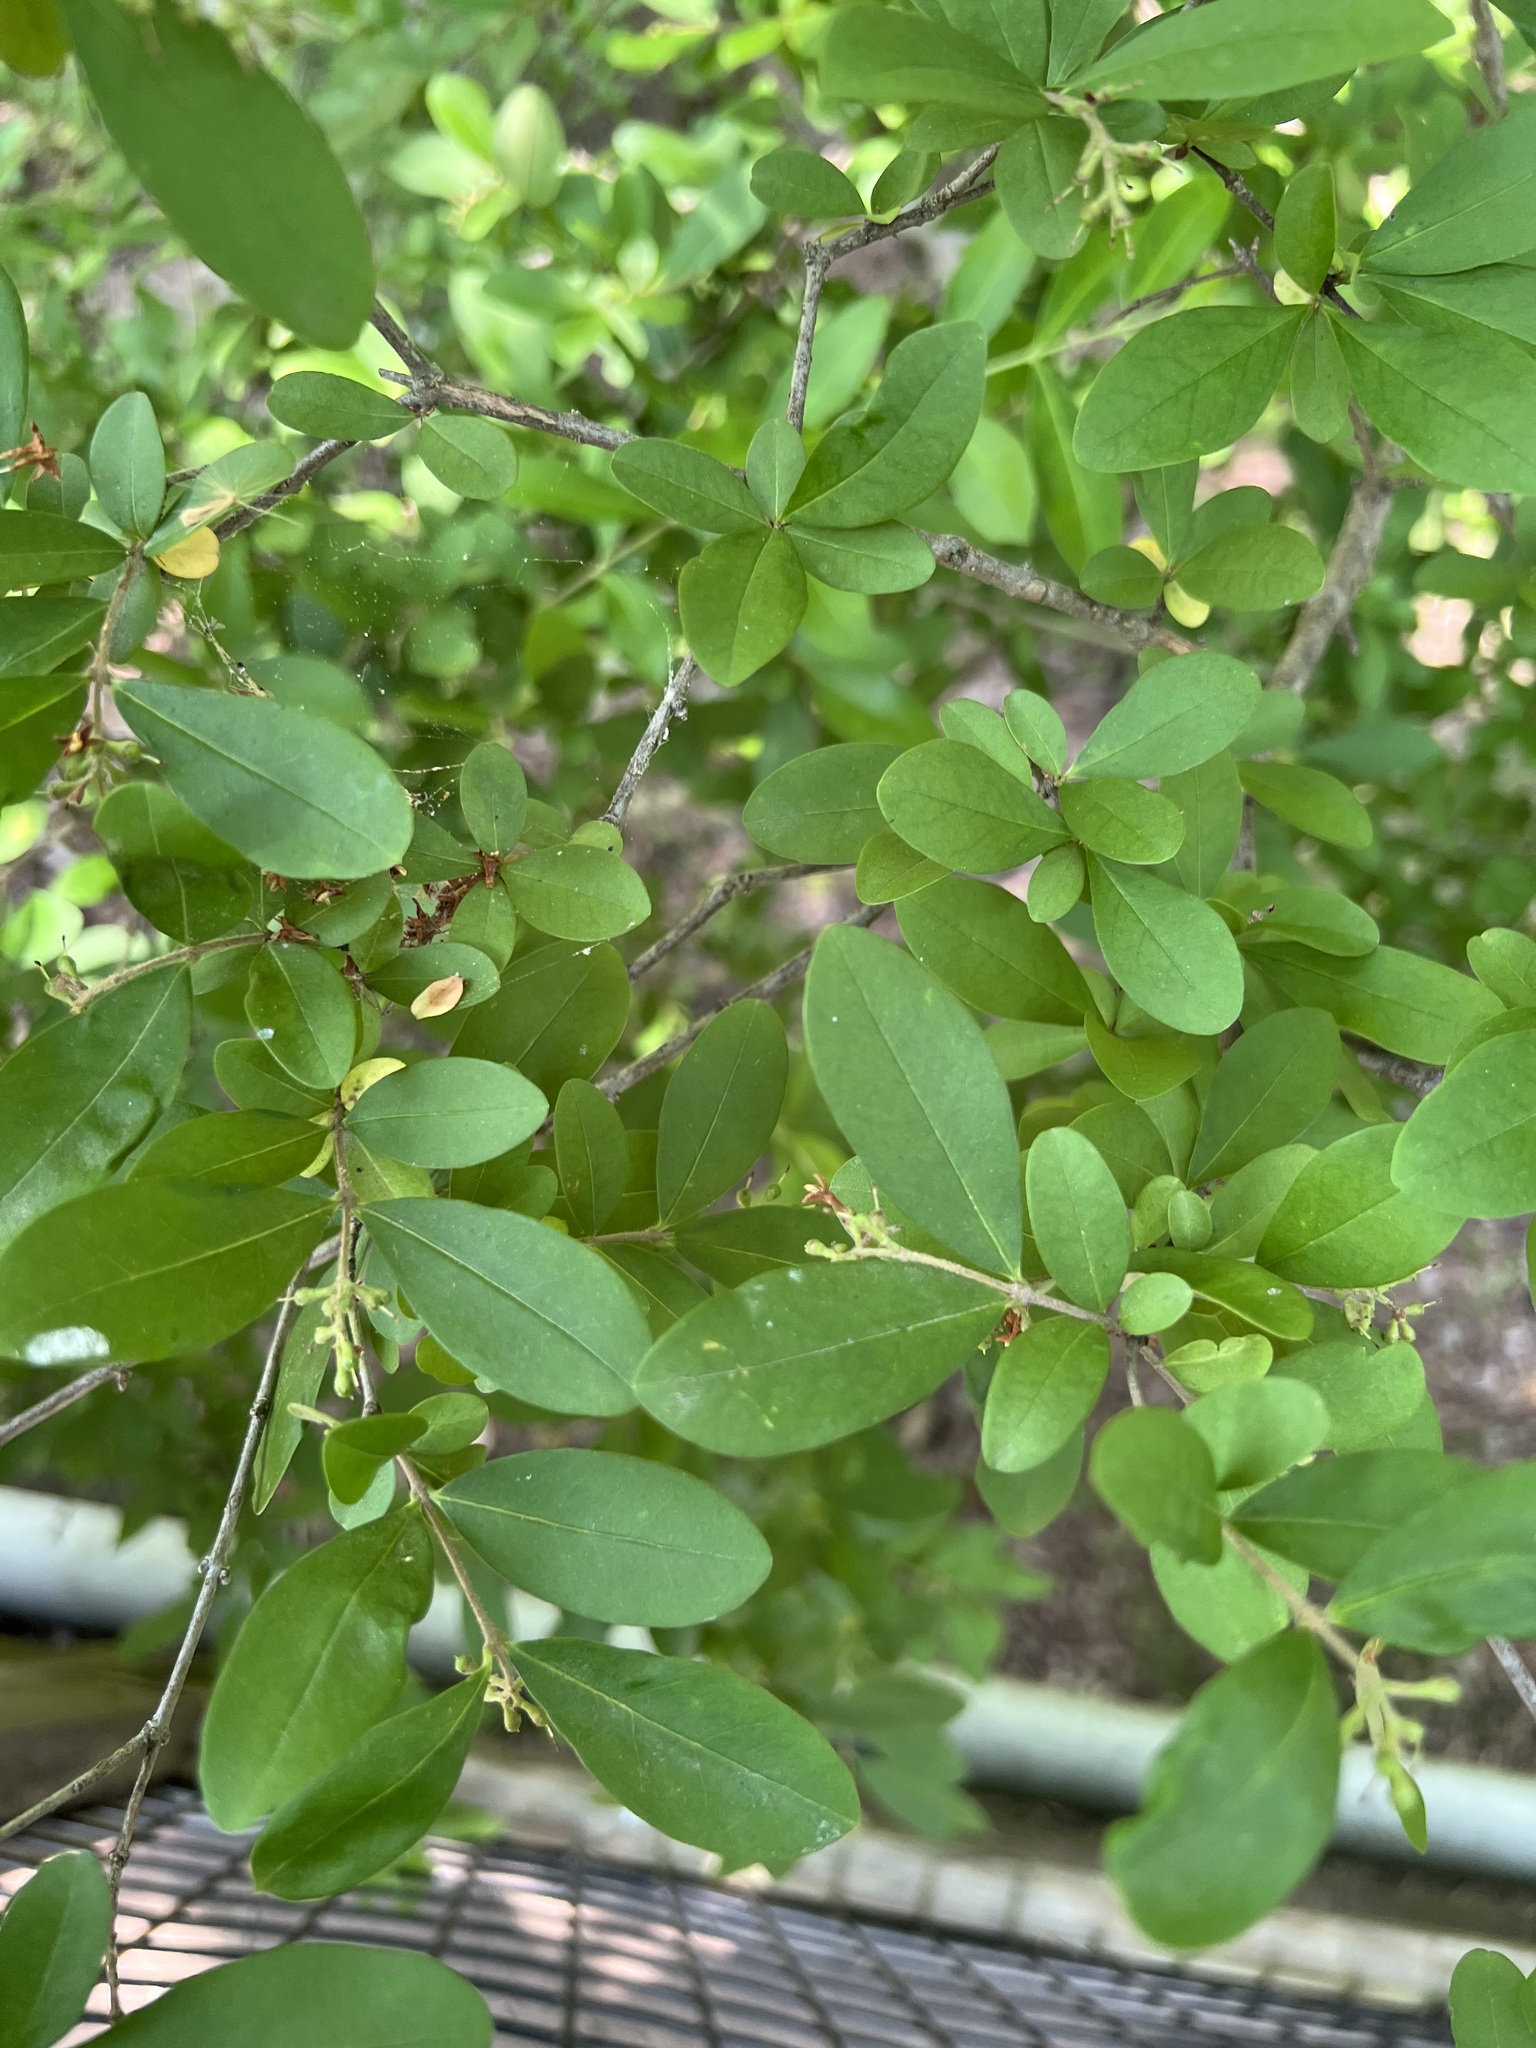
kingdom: Plantae
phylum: Tracheophyta
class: Magnoliopsida
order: Lamiales
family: Oleaceae
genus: Ligustrum
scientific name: Ligustrum obtusifolium
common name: Border privet
